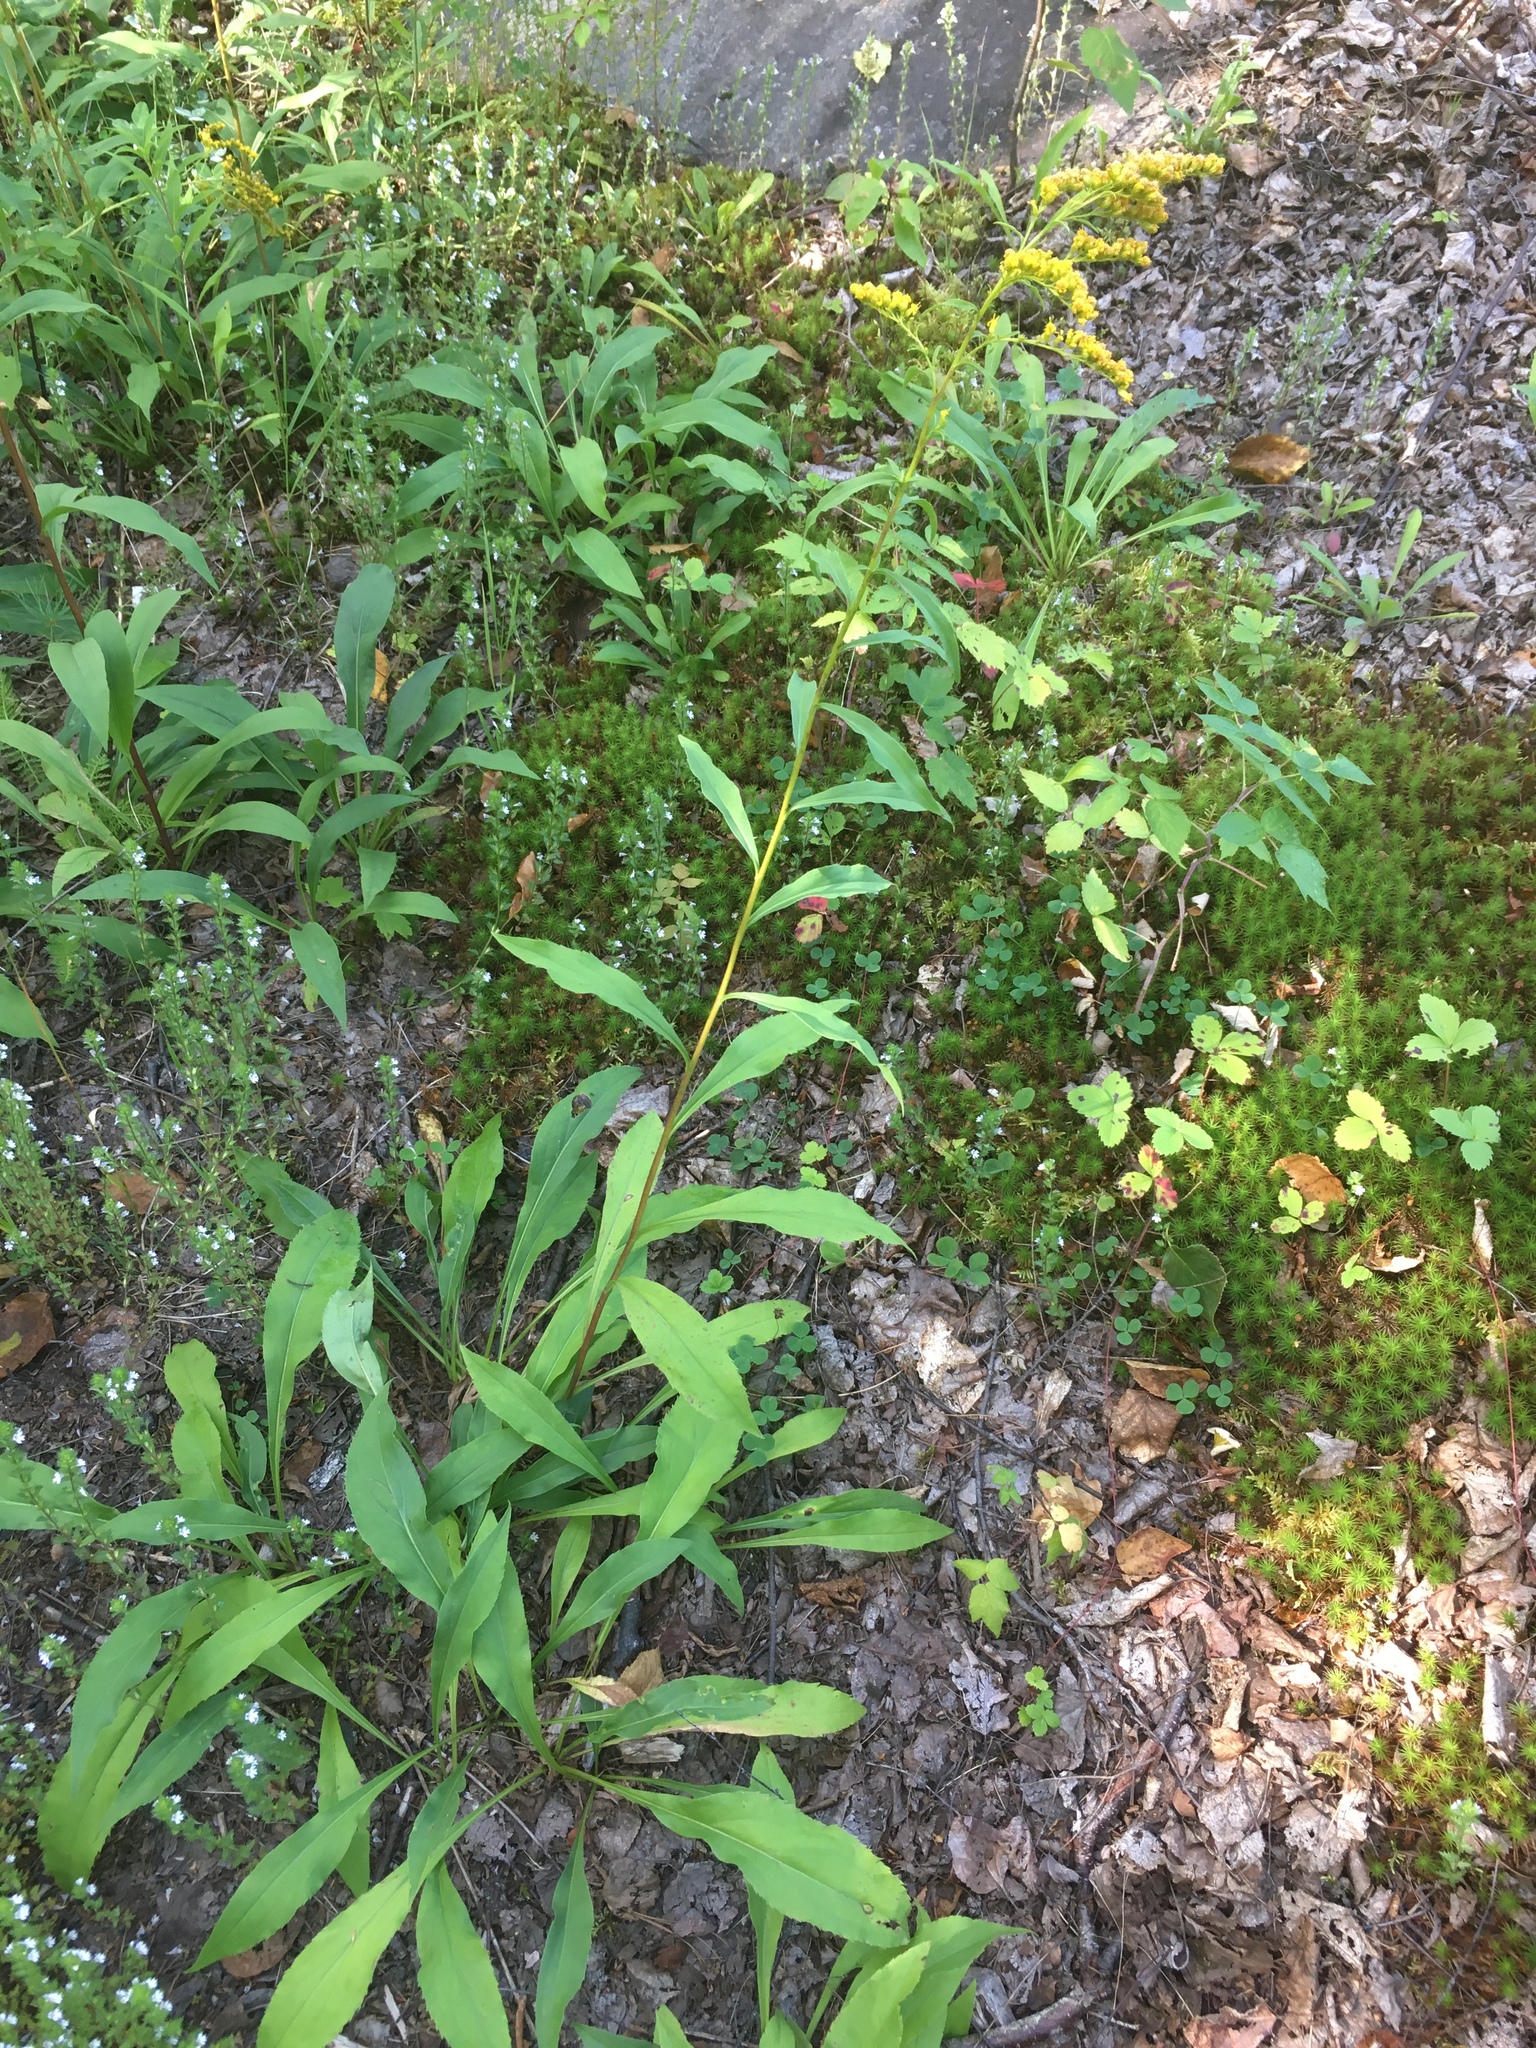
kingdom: Plantae
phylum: Tracheophyta
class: Magnoliopsida
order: Asterales
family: Asteraceae
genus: Solidago
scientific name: Solidago juncea
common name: Early goldenrod
